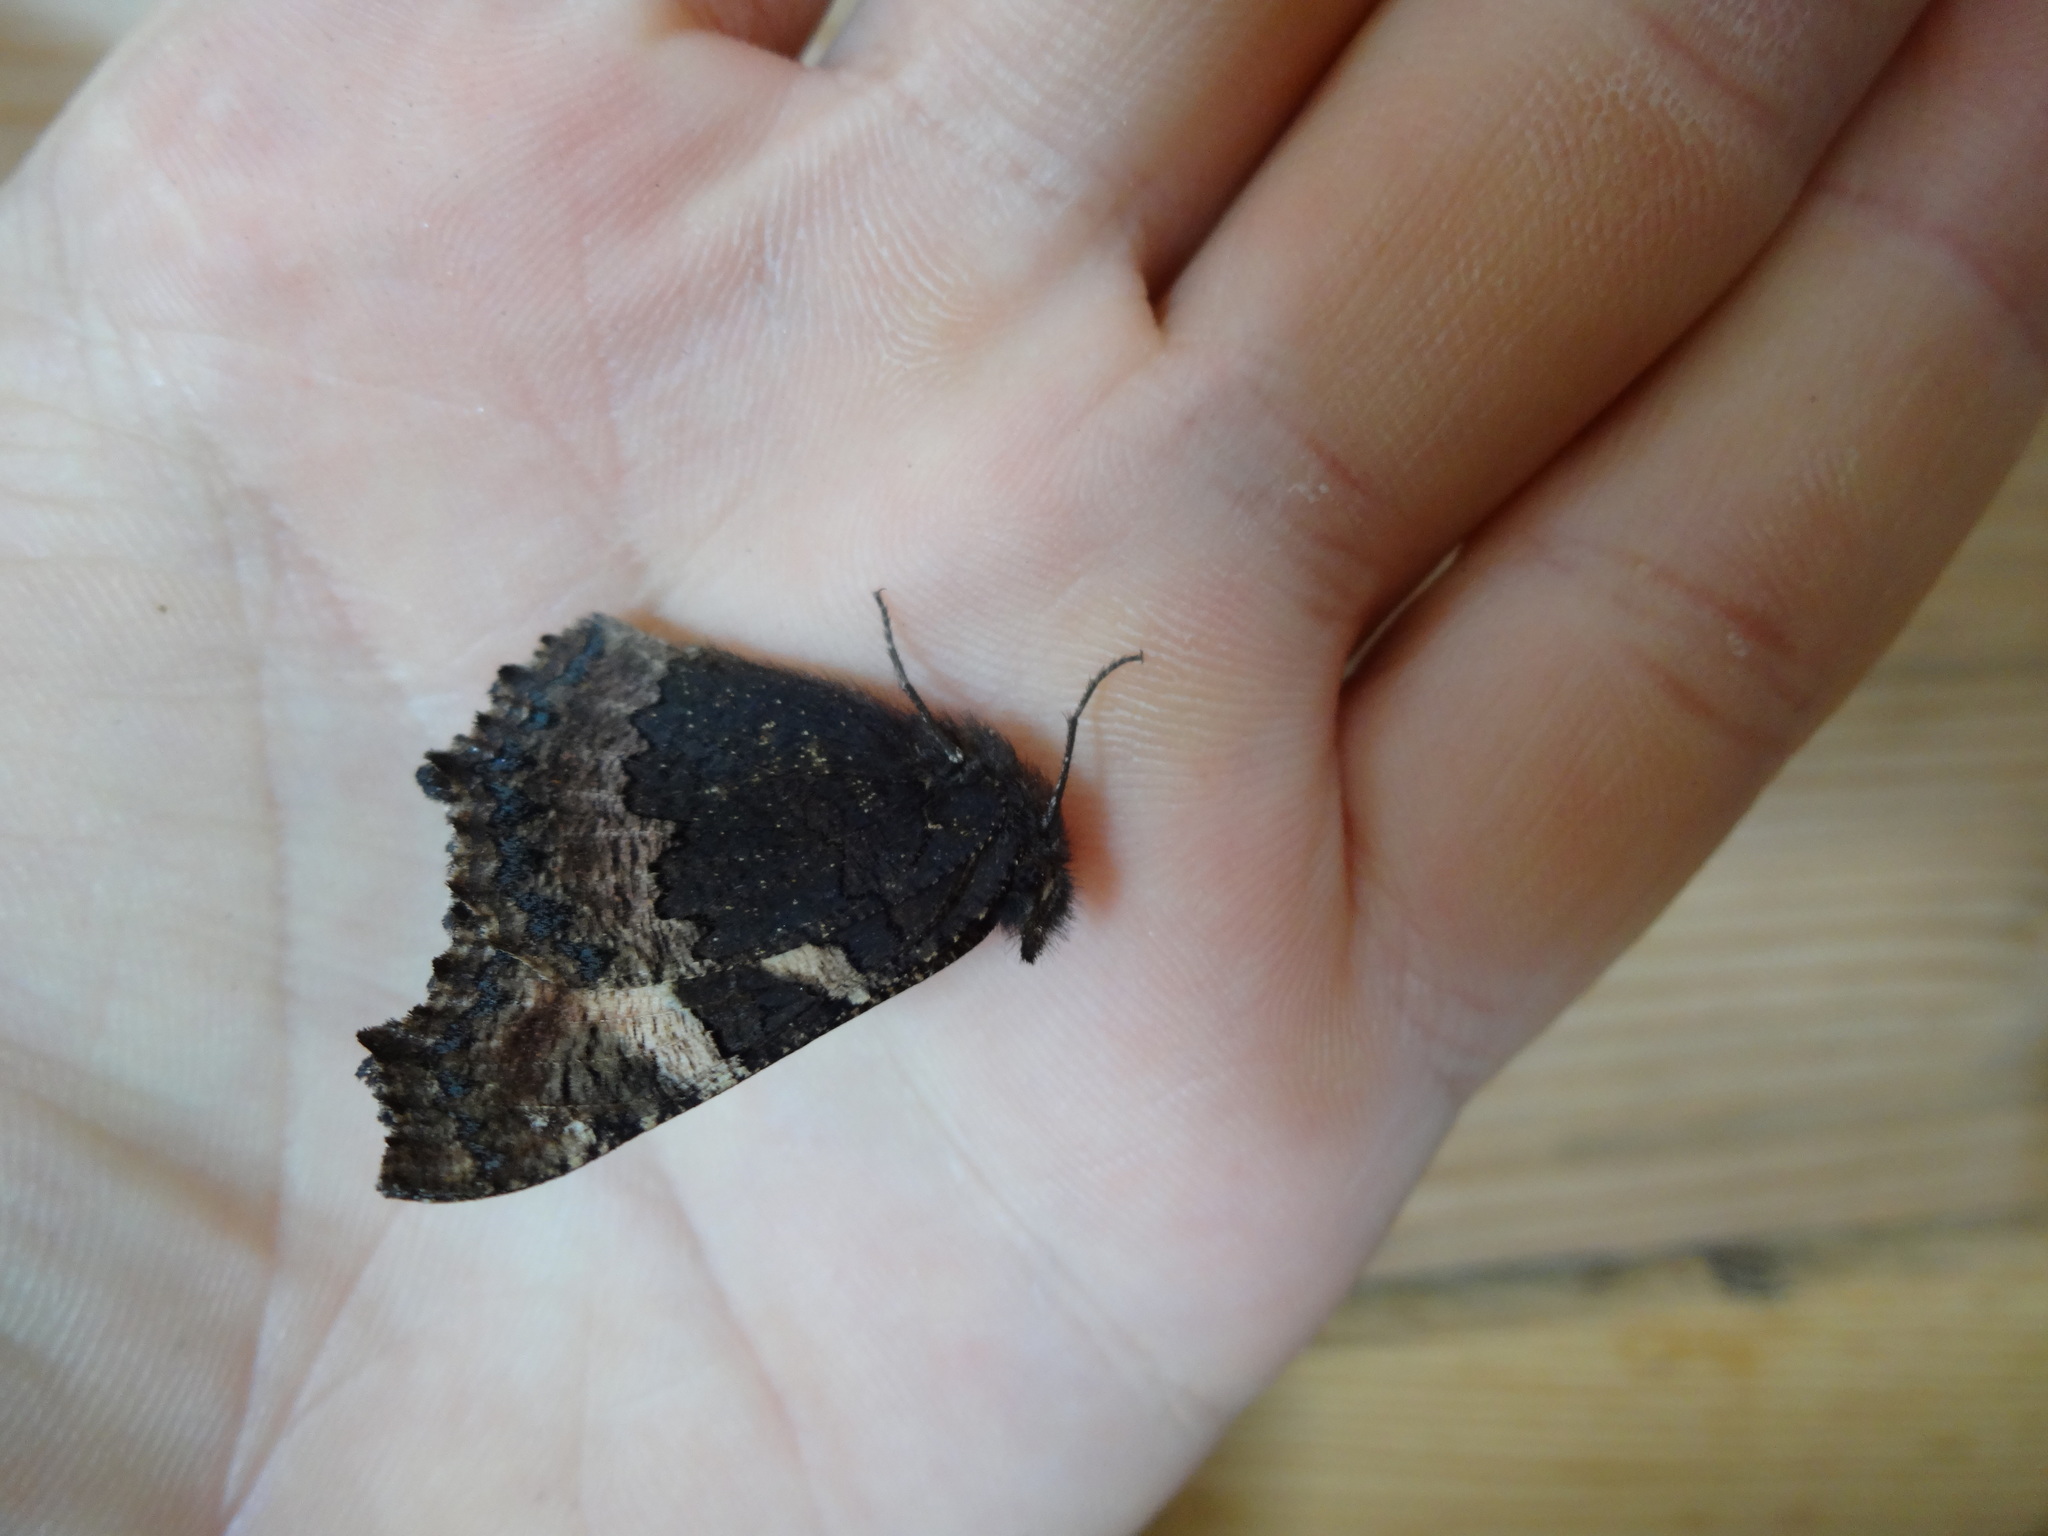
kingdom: Animalia
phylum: Arthropoda
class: Insecta
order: Lepidoptera
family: Nymphalidae
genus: Aglais
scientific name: Aglais io
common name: Peacock
